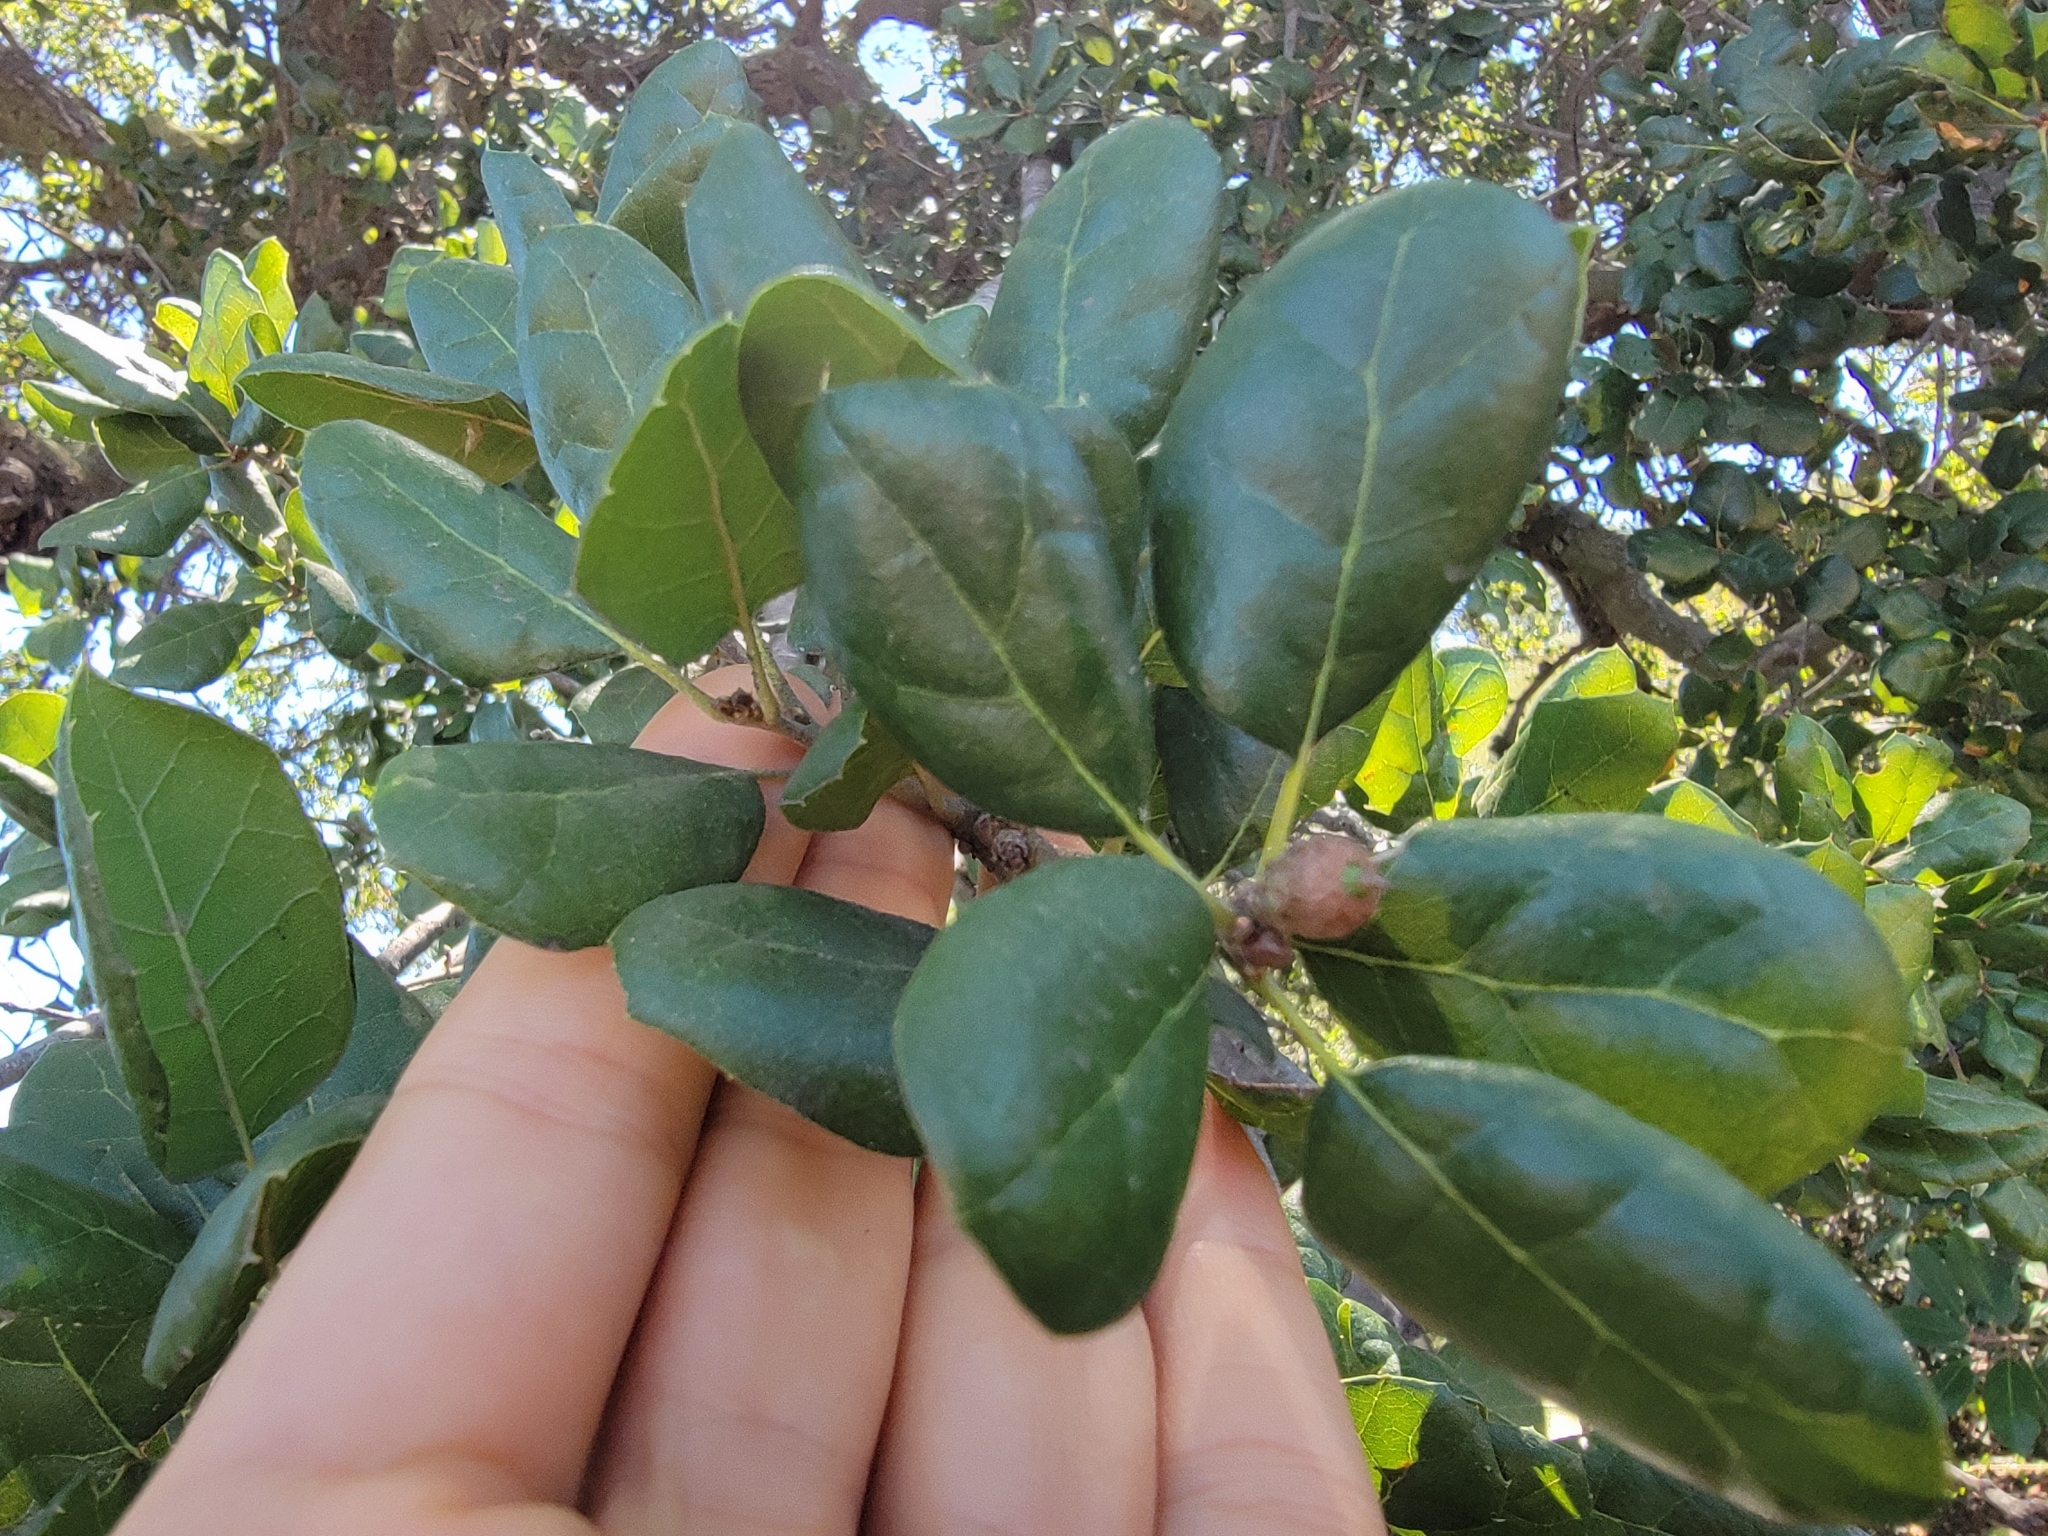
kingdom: Plantae
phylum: Tracheophyta
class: Magnoliopsida
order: Fagales
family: Fagaceae
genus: Quercus
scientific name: Quercus agrifolia
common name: California live oak
